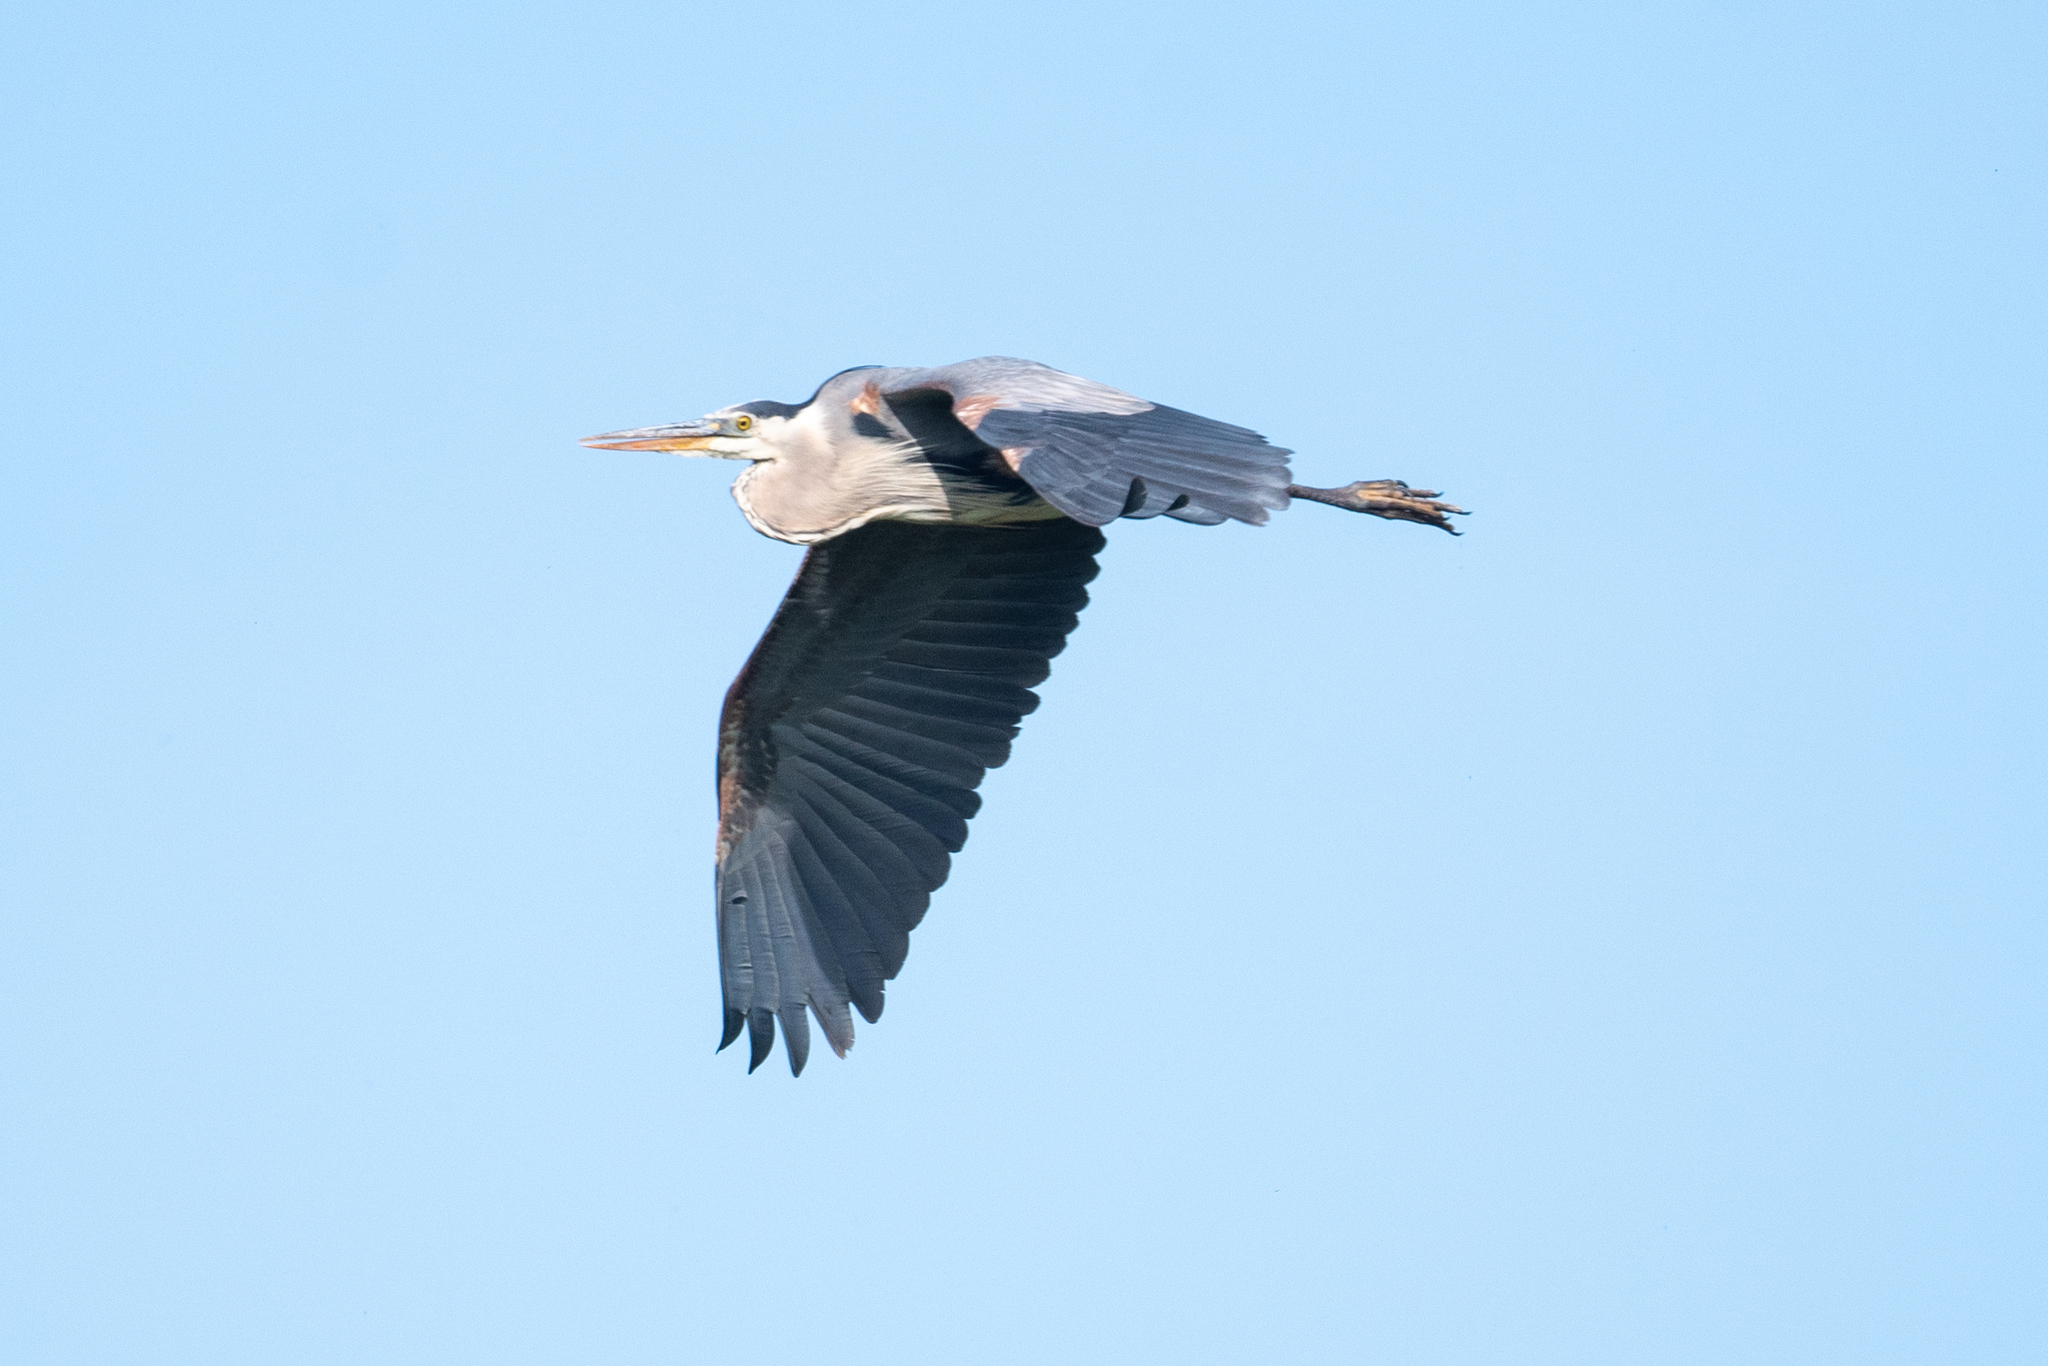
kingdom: Animalia
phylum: Chordata
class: Aves
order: Pelecaniformes
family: Ardeidae
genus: Ardea
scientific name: Ardea herodias
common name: Great blue heron
